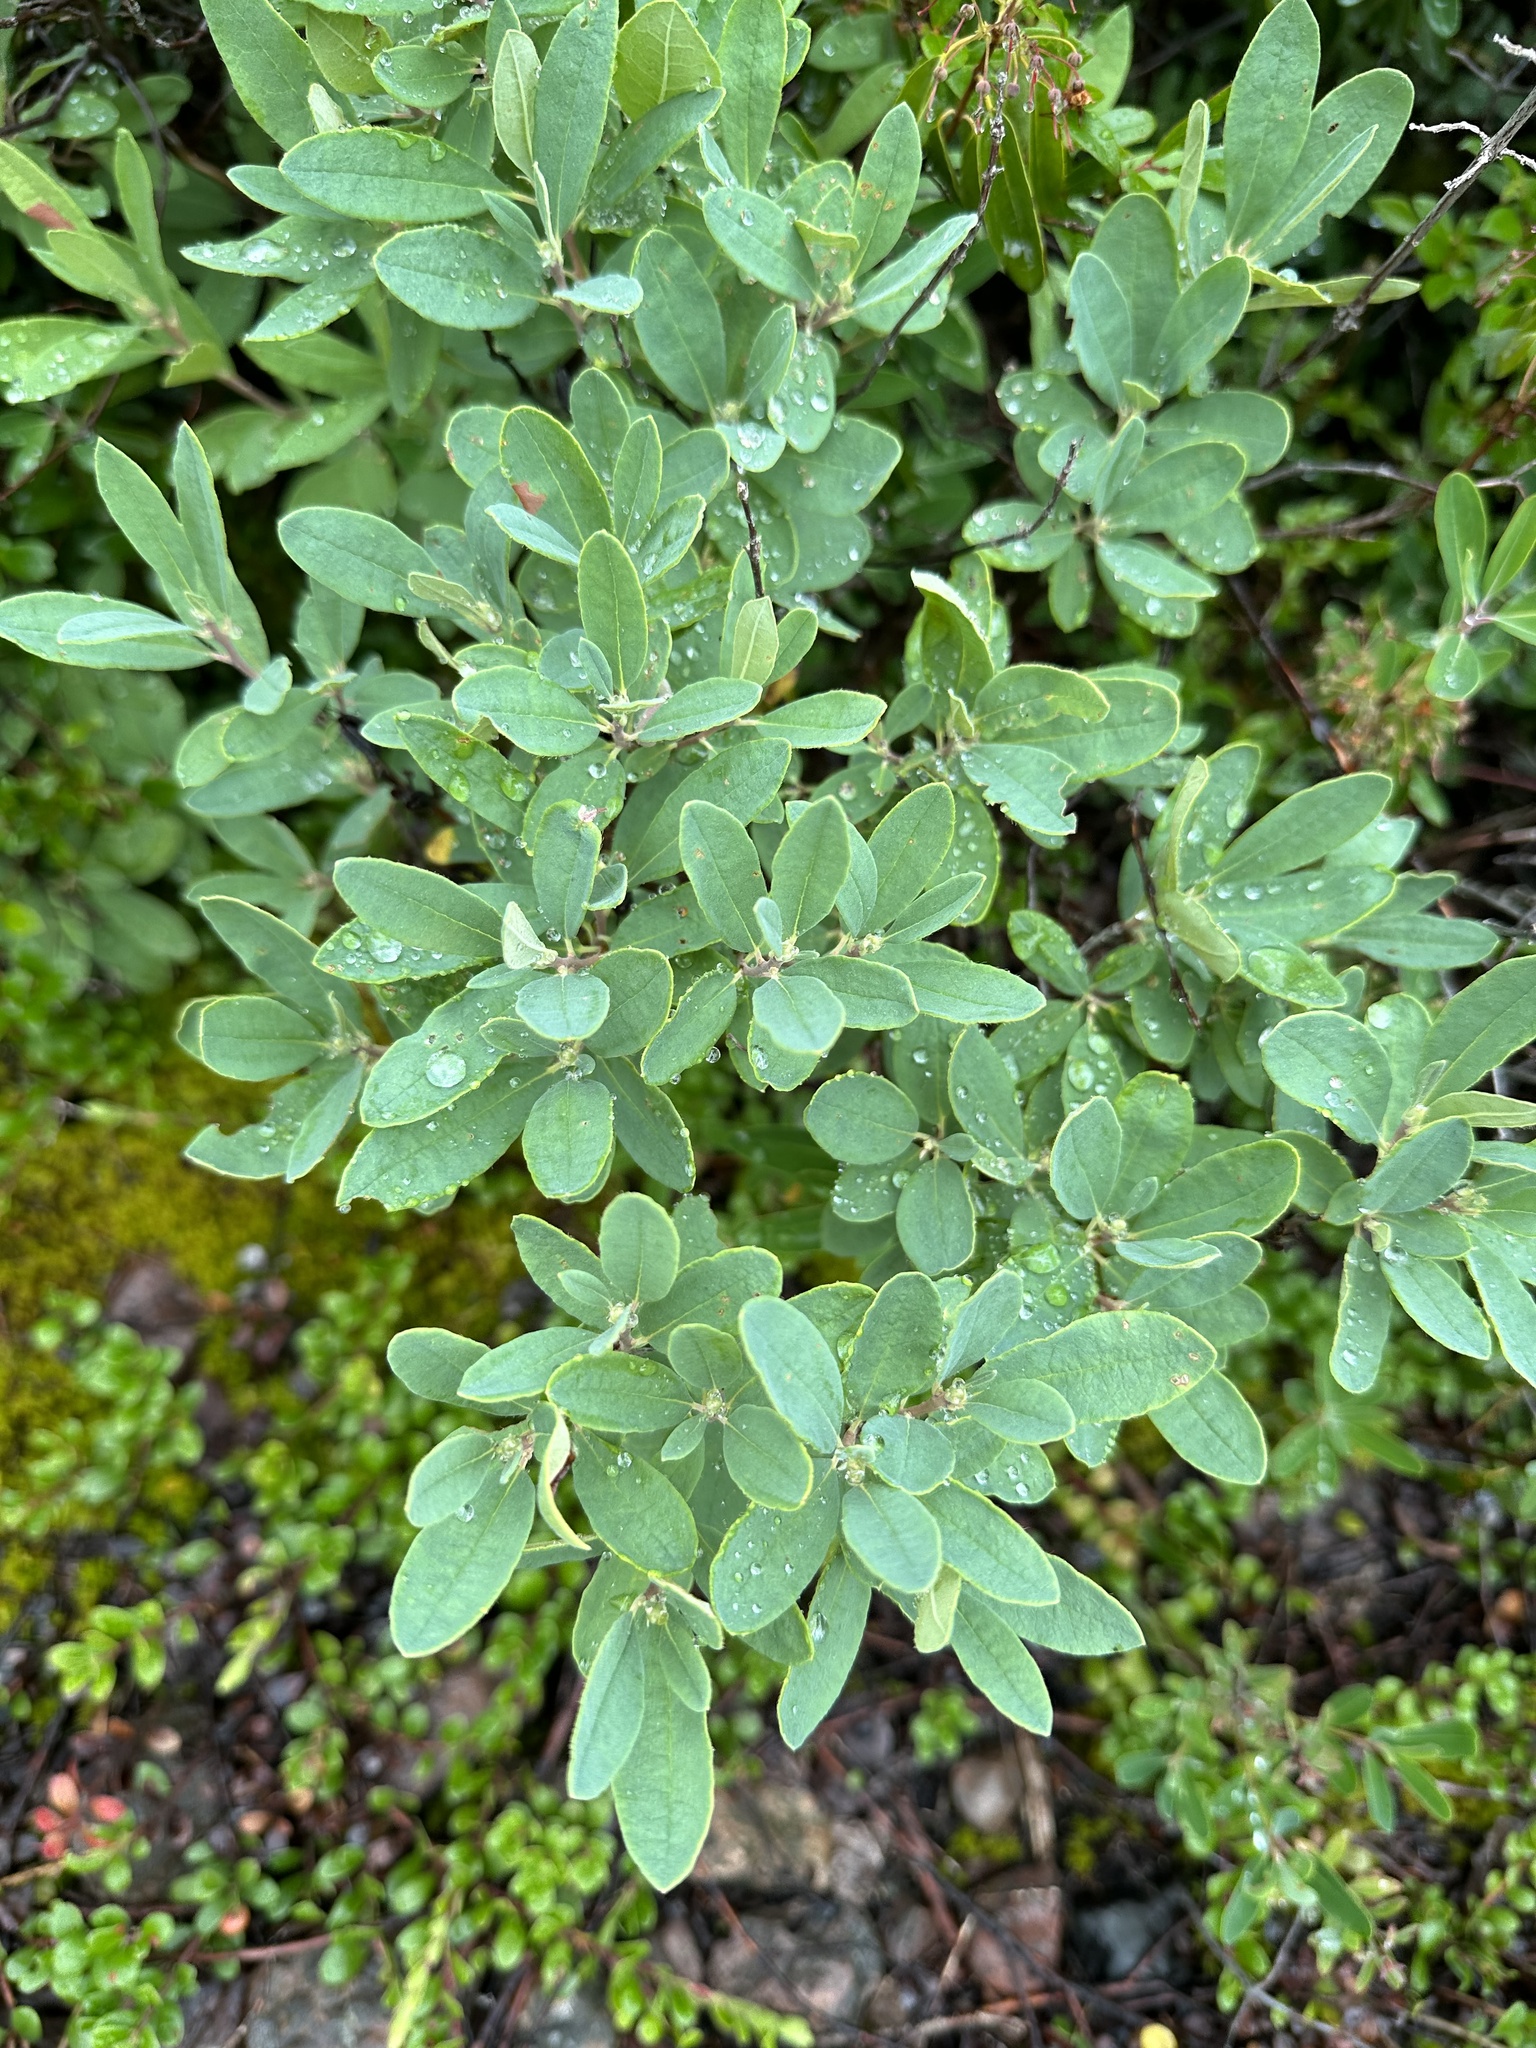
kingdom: Plantae
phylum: Tracheophyta
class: Magnoliopsida
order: Ericales
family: Ericaceae
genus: Rhododendron
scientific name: Rhododendron canadense
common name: Rhodora
